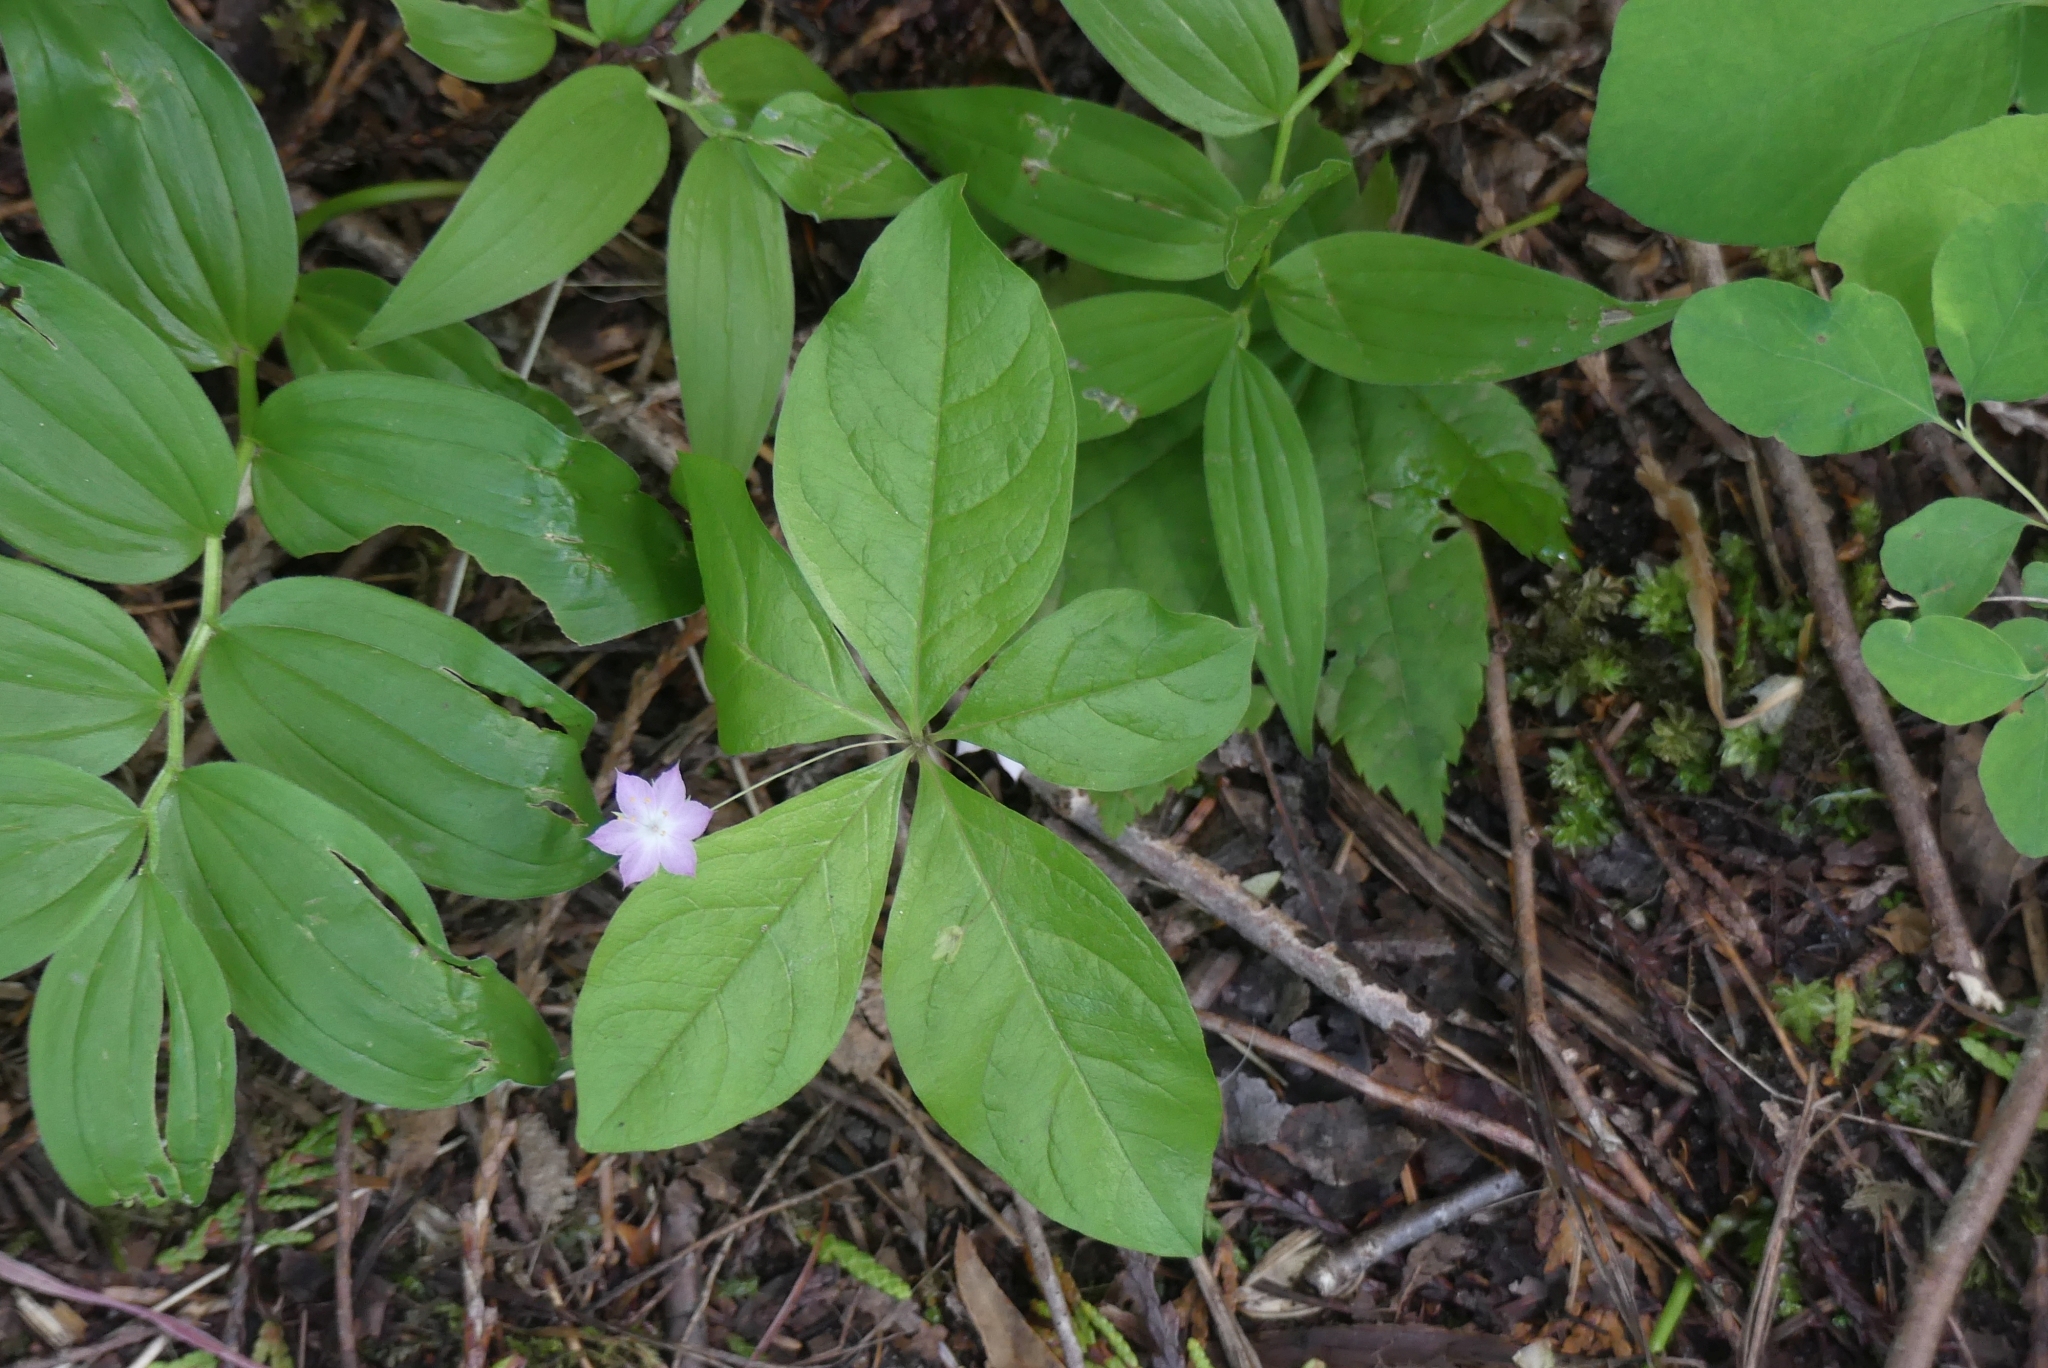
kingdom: Plantae
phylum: Tracheophyta
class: Magnoliopsida
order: Ericales
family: Primulaceae
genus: Lysimachia
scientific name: Lysimachia latifolia
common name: Pacific starflower
